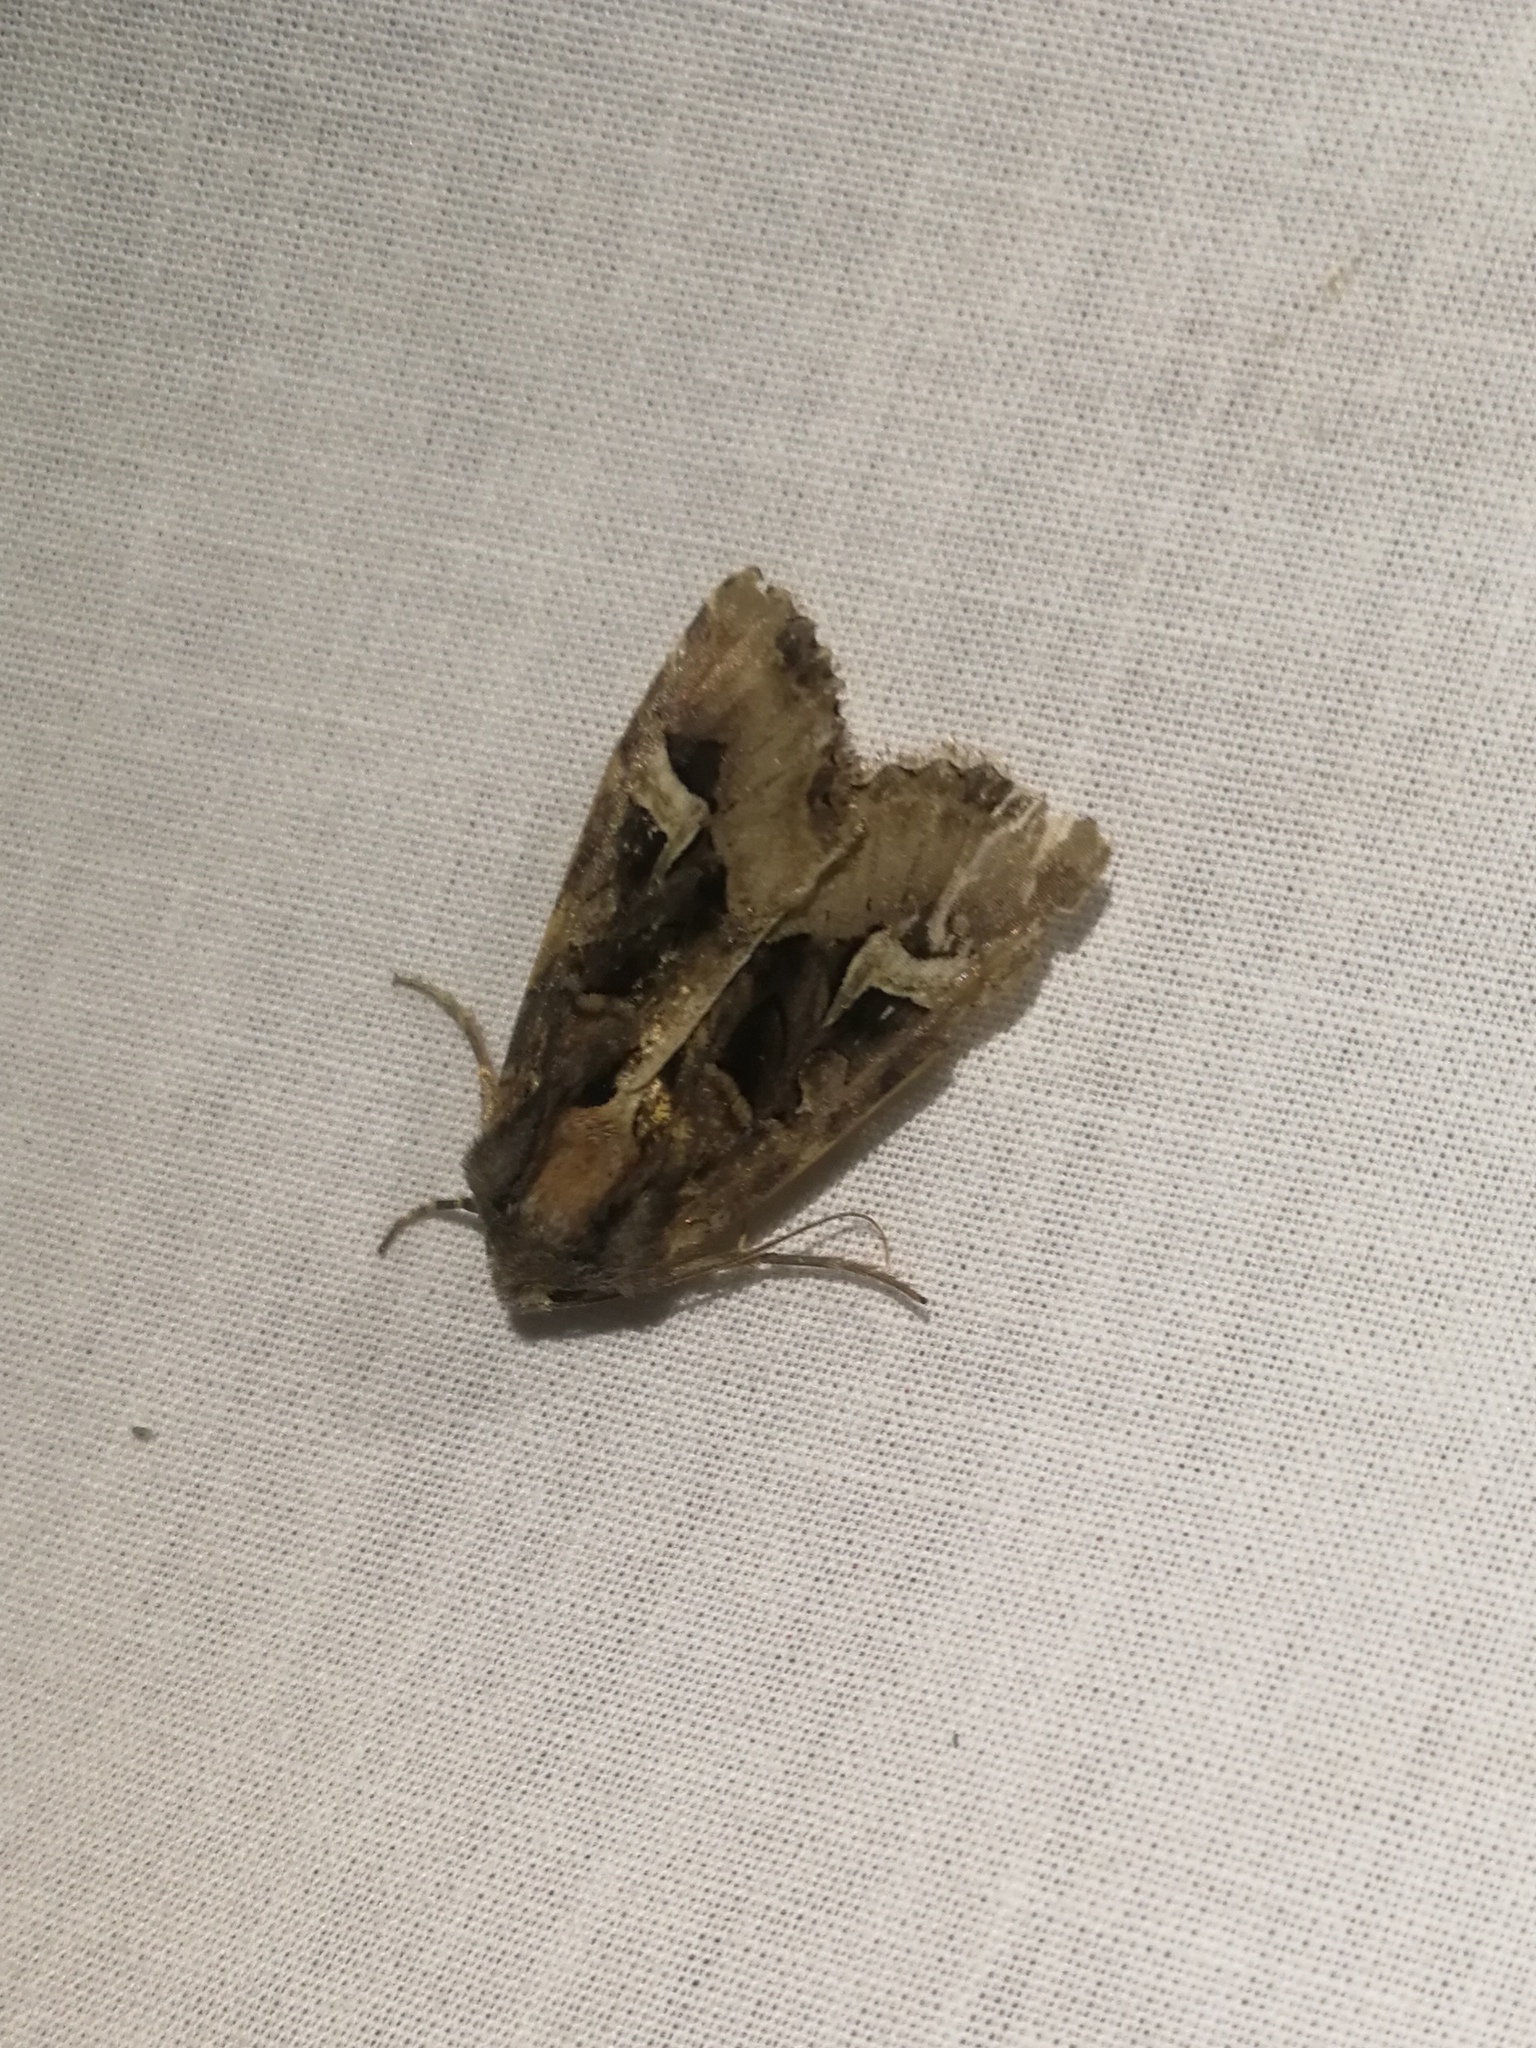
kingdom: Animalia
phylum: Arthropoda
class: Insecta
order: Lepidoptera
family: Noctuidae
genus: Trigonophora
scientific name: Trigonophora flammea
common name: Flame brocade
